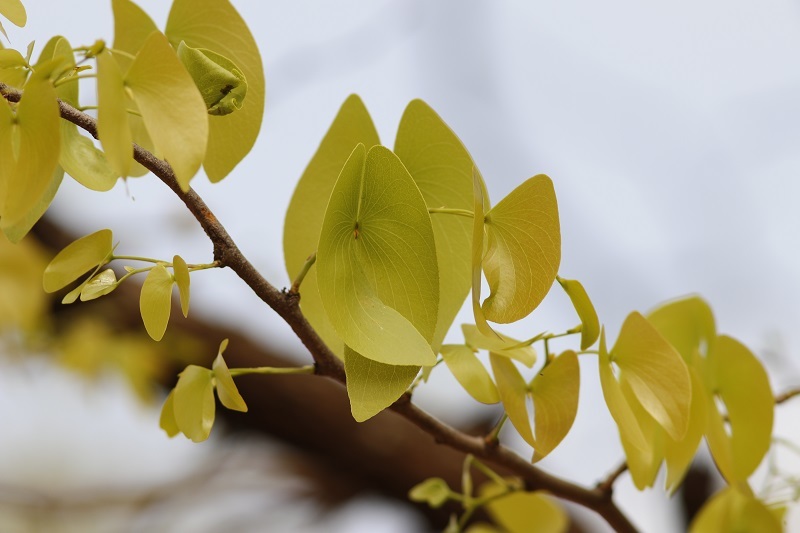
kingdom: Plantae
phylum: Tracheophyta
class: Magnoliopsida
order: Fabales
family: Fabaceae
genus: Colophospermum
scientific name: Colophospermum mopane
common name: Mopane
